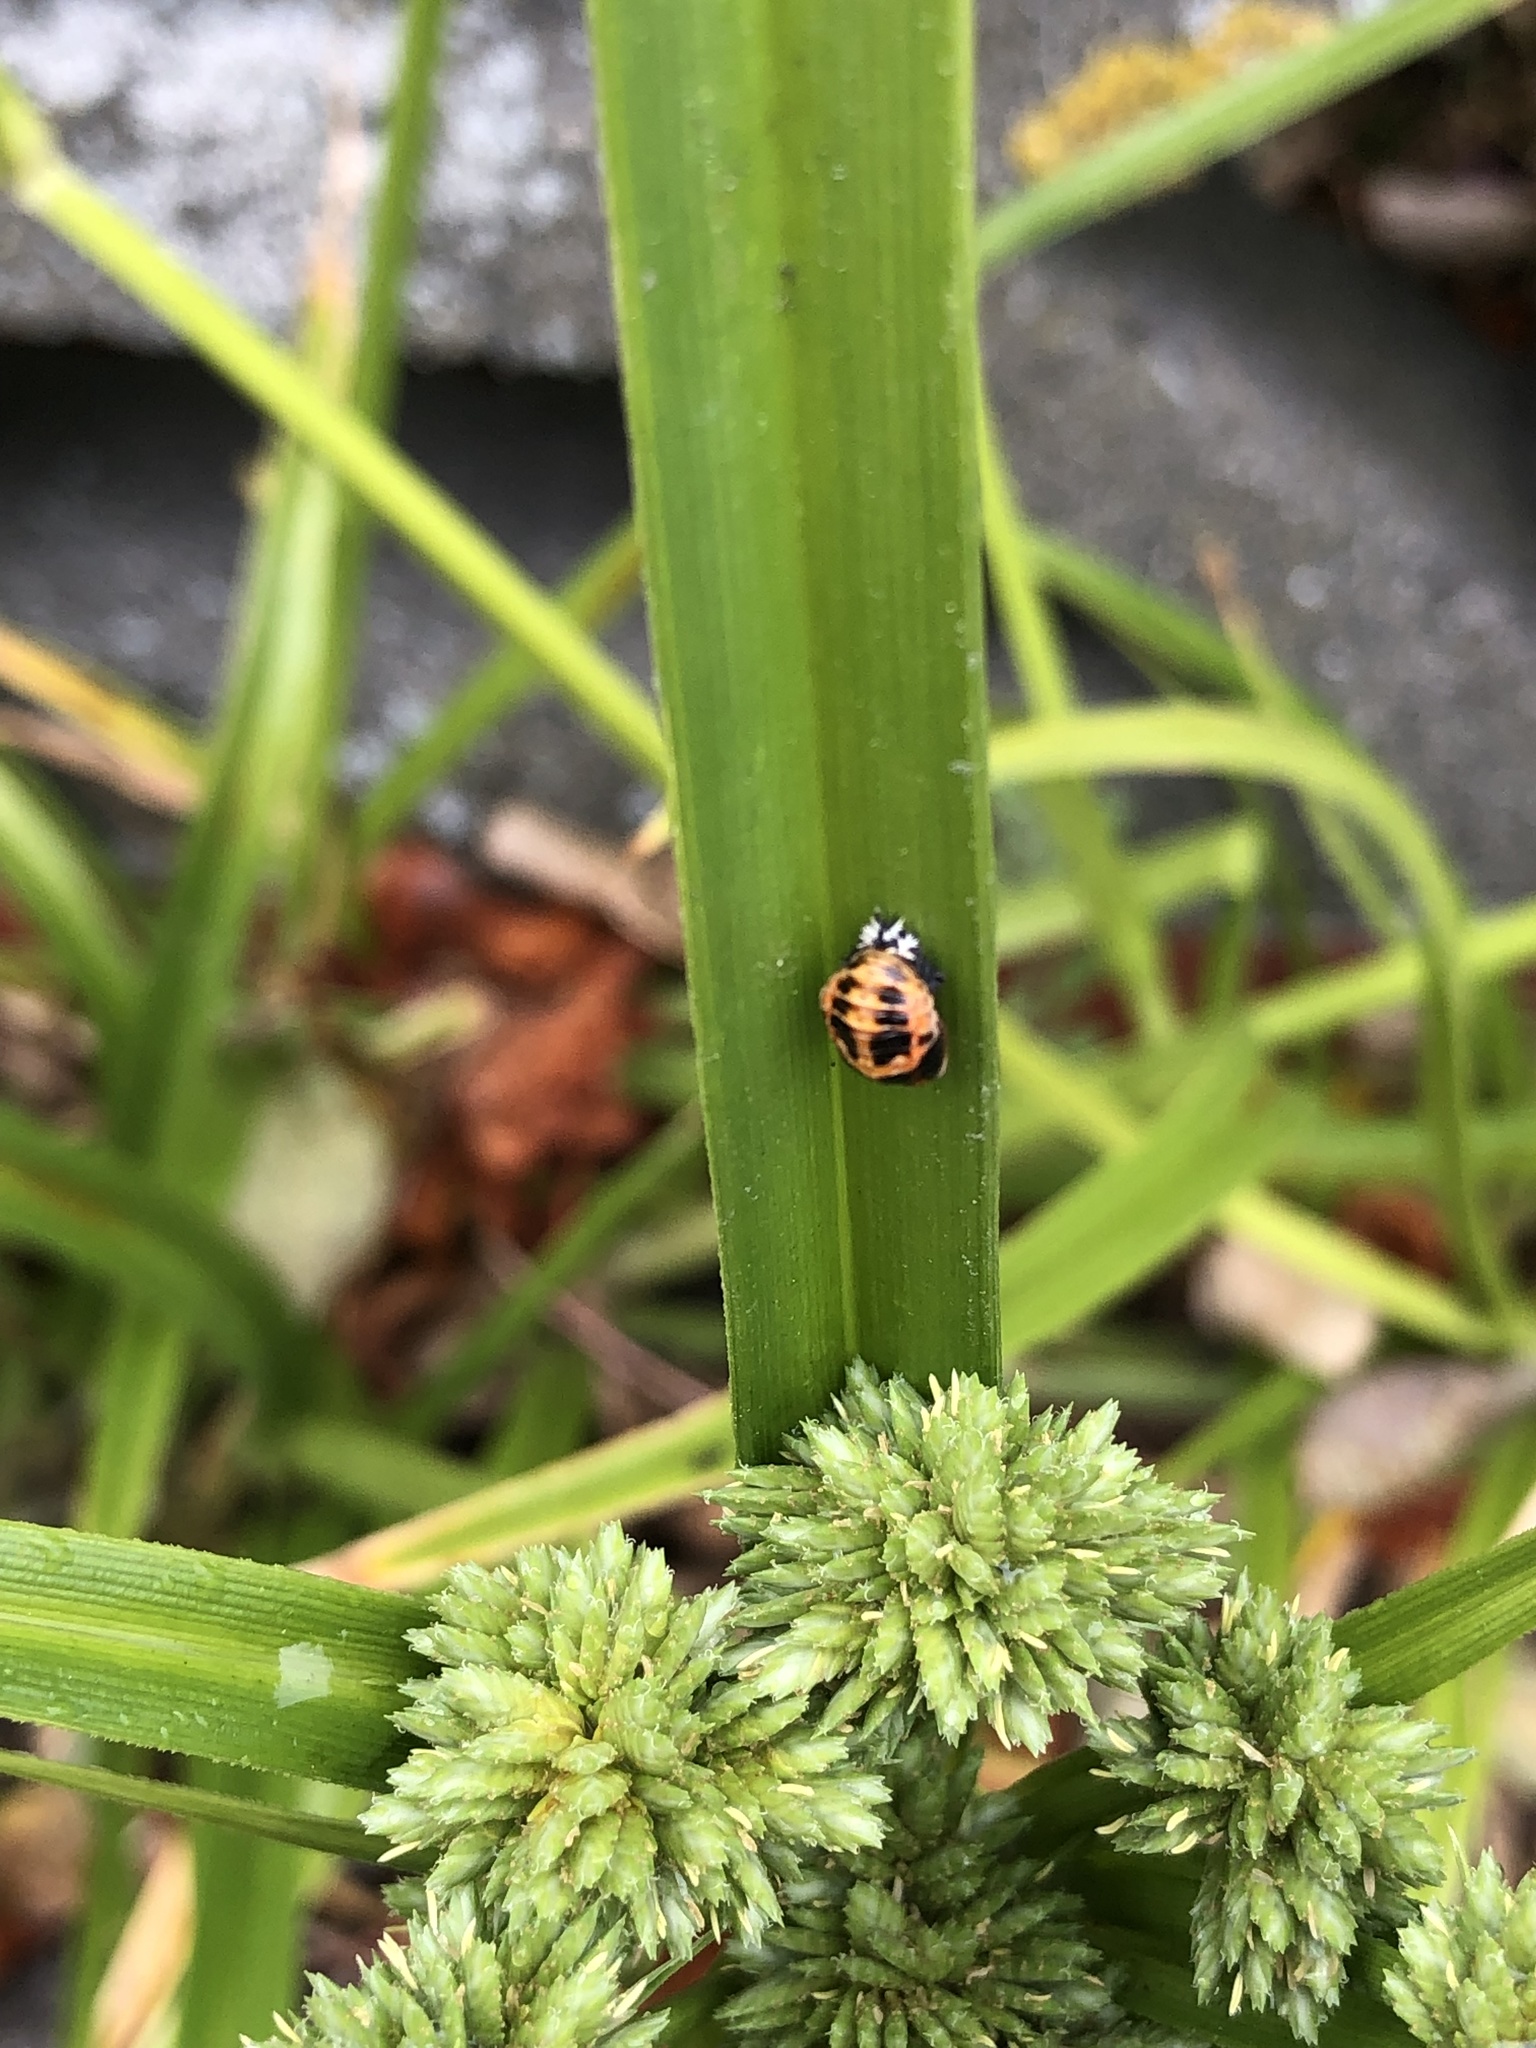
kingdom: Animalia
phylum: Arthropoda
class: Insecta
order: Coleoptera
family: Coccinellidae
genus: Harmonia
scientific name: Harmonia axyridis
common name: Harlequin ladybird
